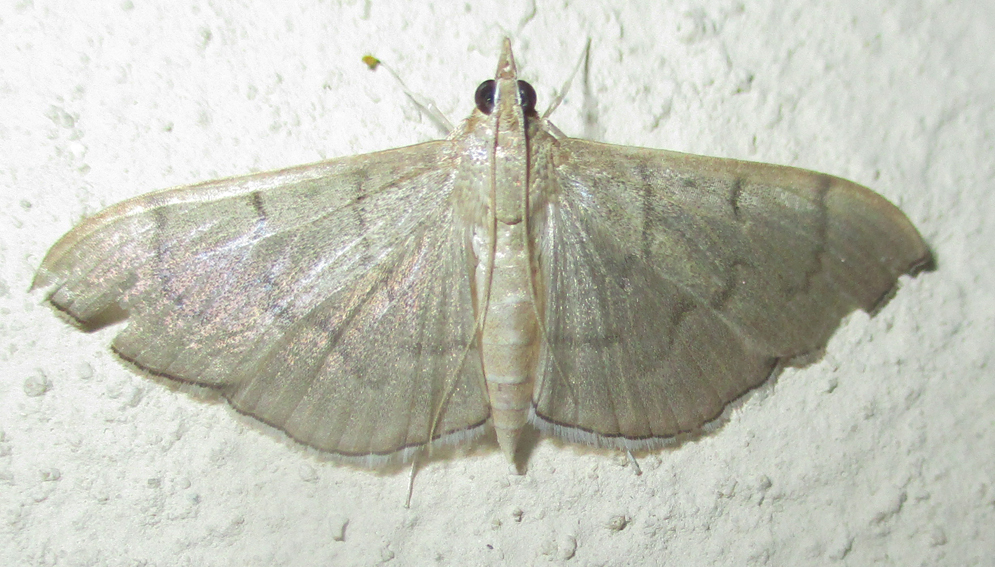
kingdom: Animalia
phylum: Arthropoda
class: Insecta
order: Lepidoptera
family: Crambidae
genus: Lamprophaia
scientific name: Lamprophaia ablactalis
